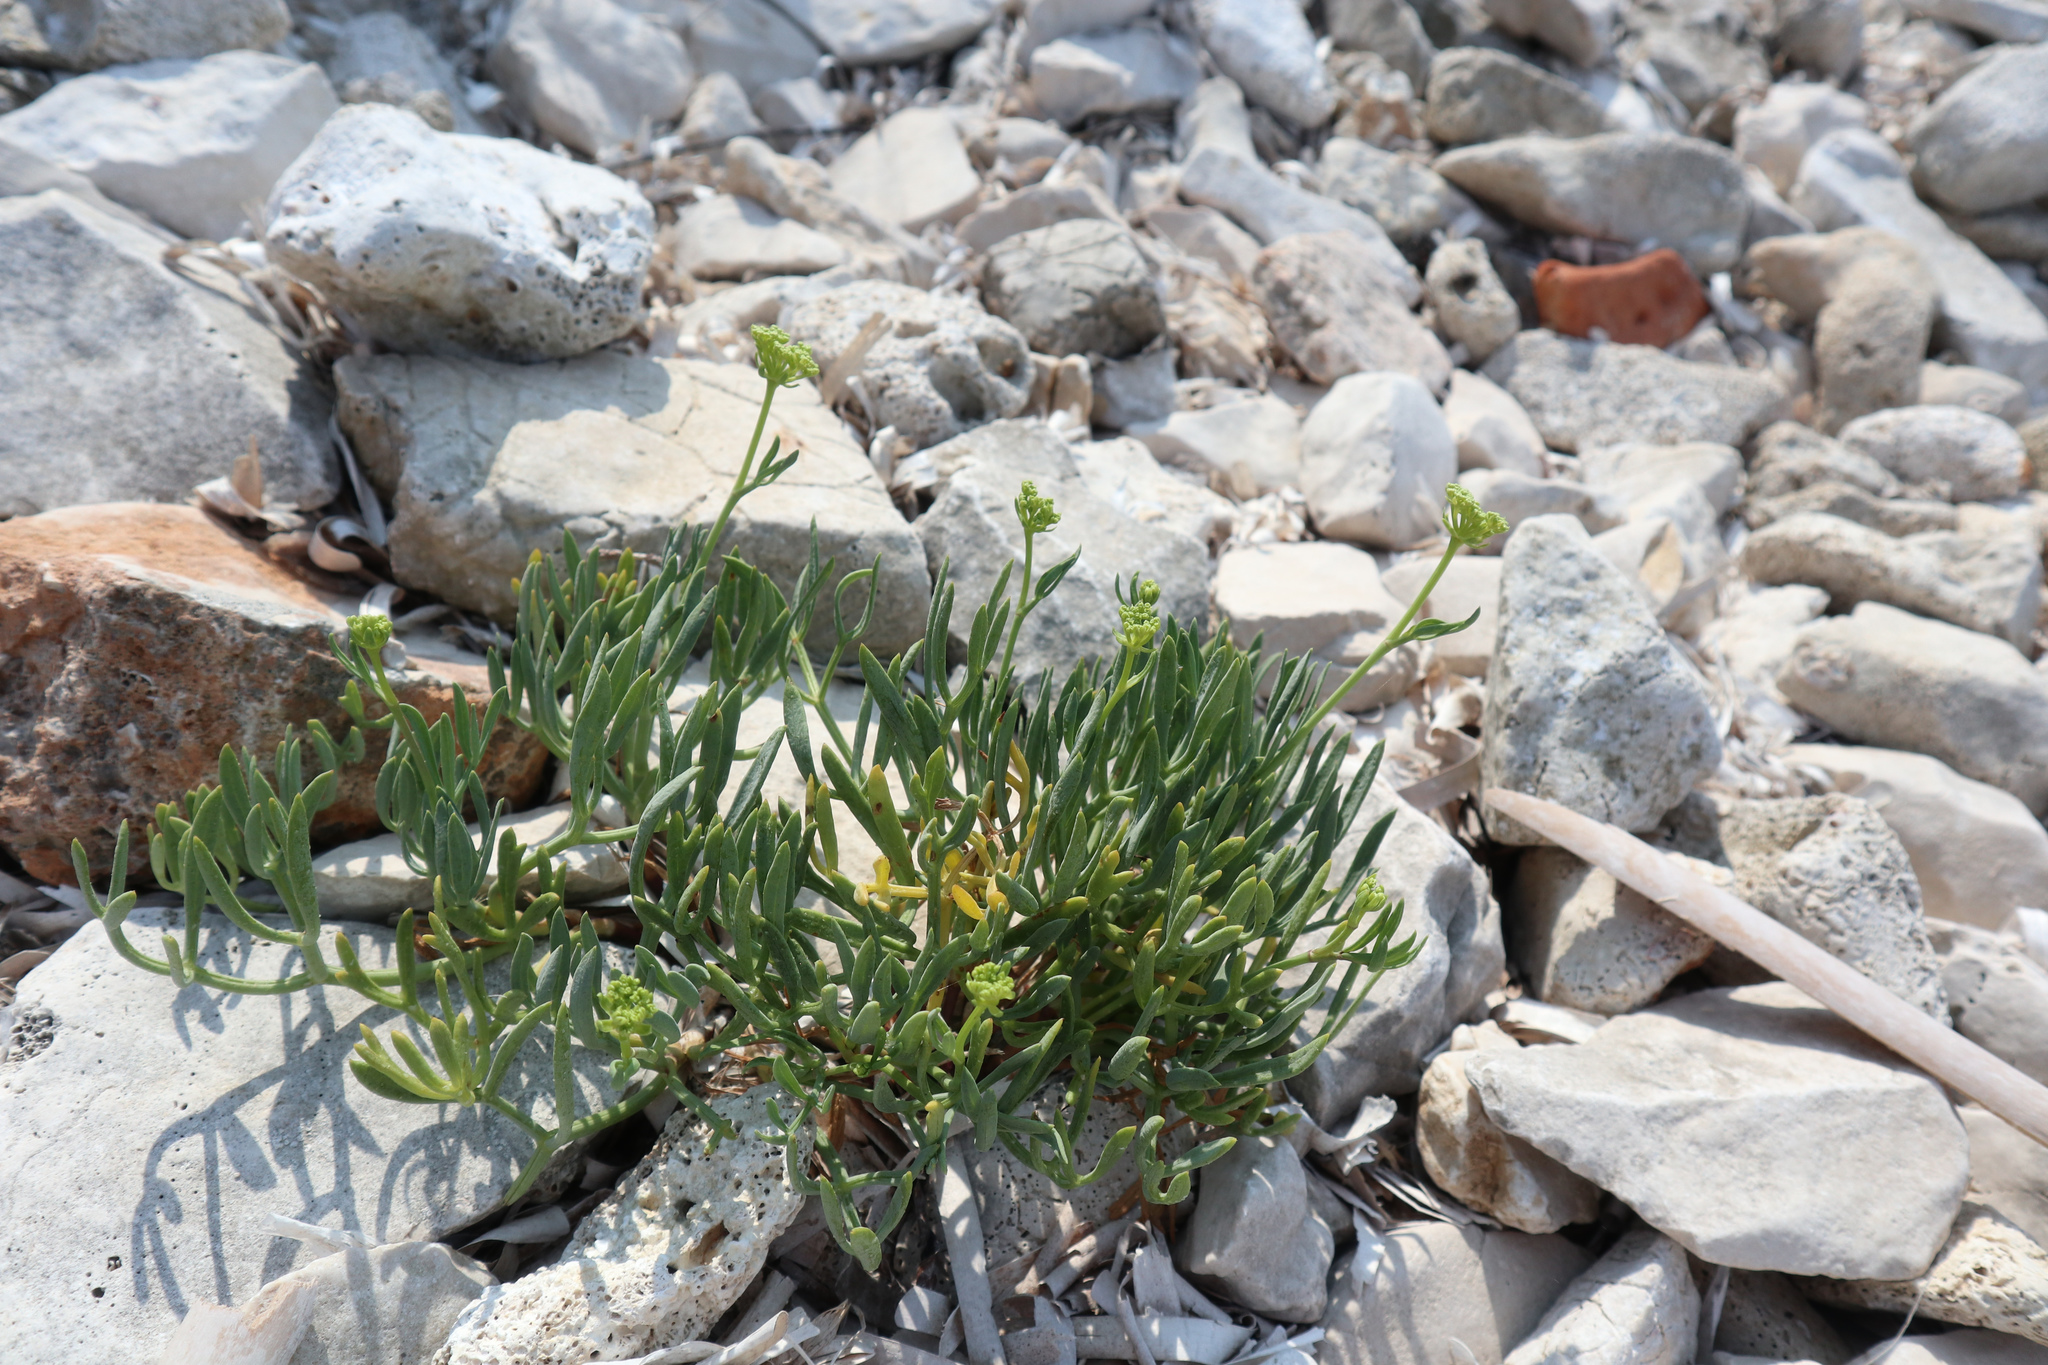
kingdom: Plantae
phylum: Tracheophyta
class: Magnoliopsida
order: Apiales
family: Apiaceae
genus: Crithmum
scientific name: Crithmum maritimum
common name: Rock samphire
